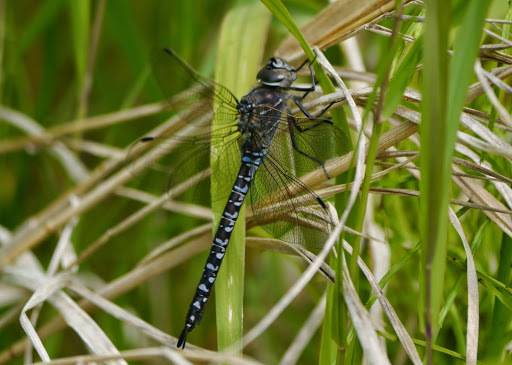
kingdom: Animalia
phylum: Arthropoda
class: Insecta
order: Odonata
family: Aeshnidae
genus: Aeshna
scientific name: Aeshna interrupta
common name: Variable darner
